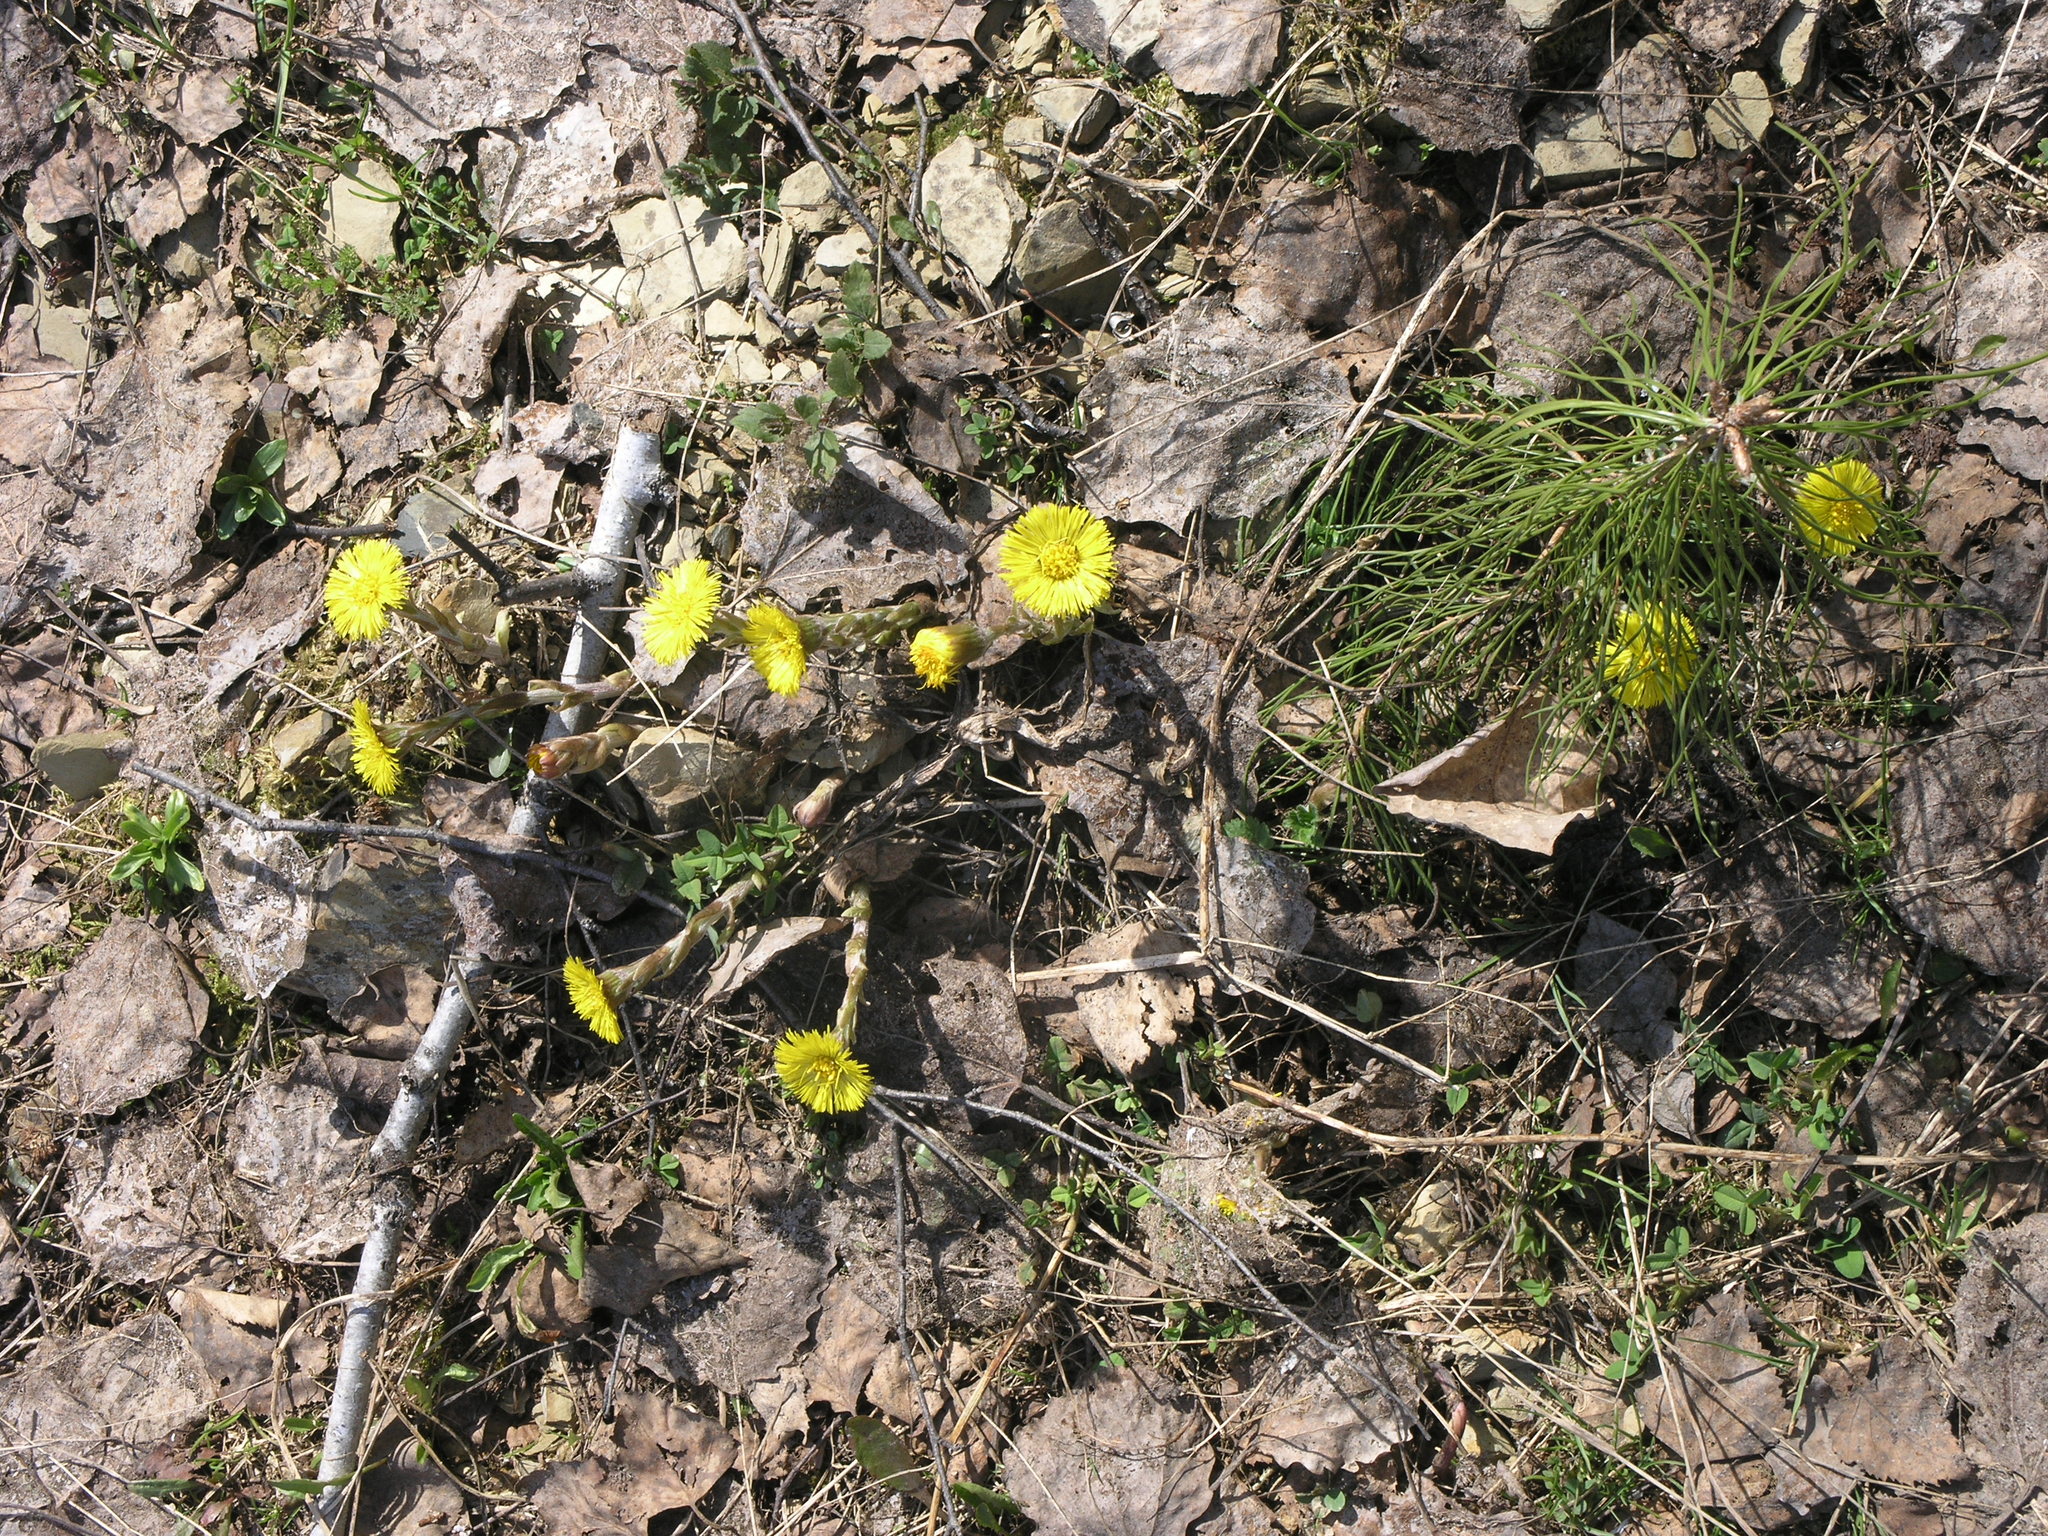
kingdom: Plantae
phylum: Tracheophyta
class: Magnoliopsida
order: Asterales
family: Asteraceae
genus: Tussilago
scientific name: Tussilago farfara
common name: Coltsfoot
